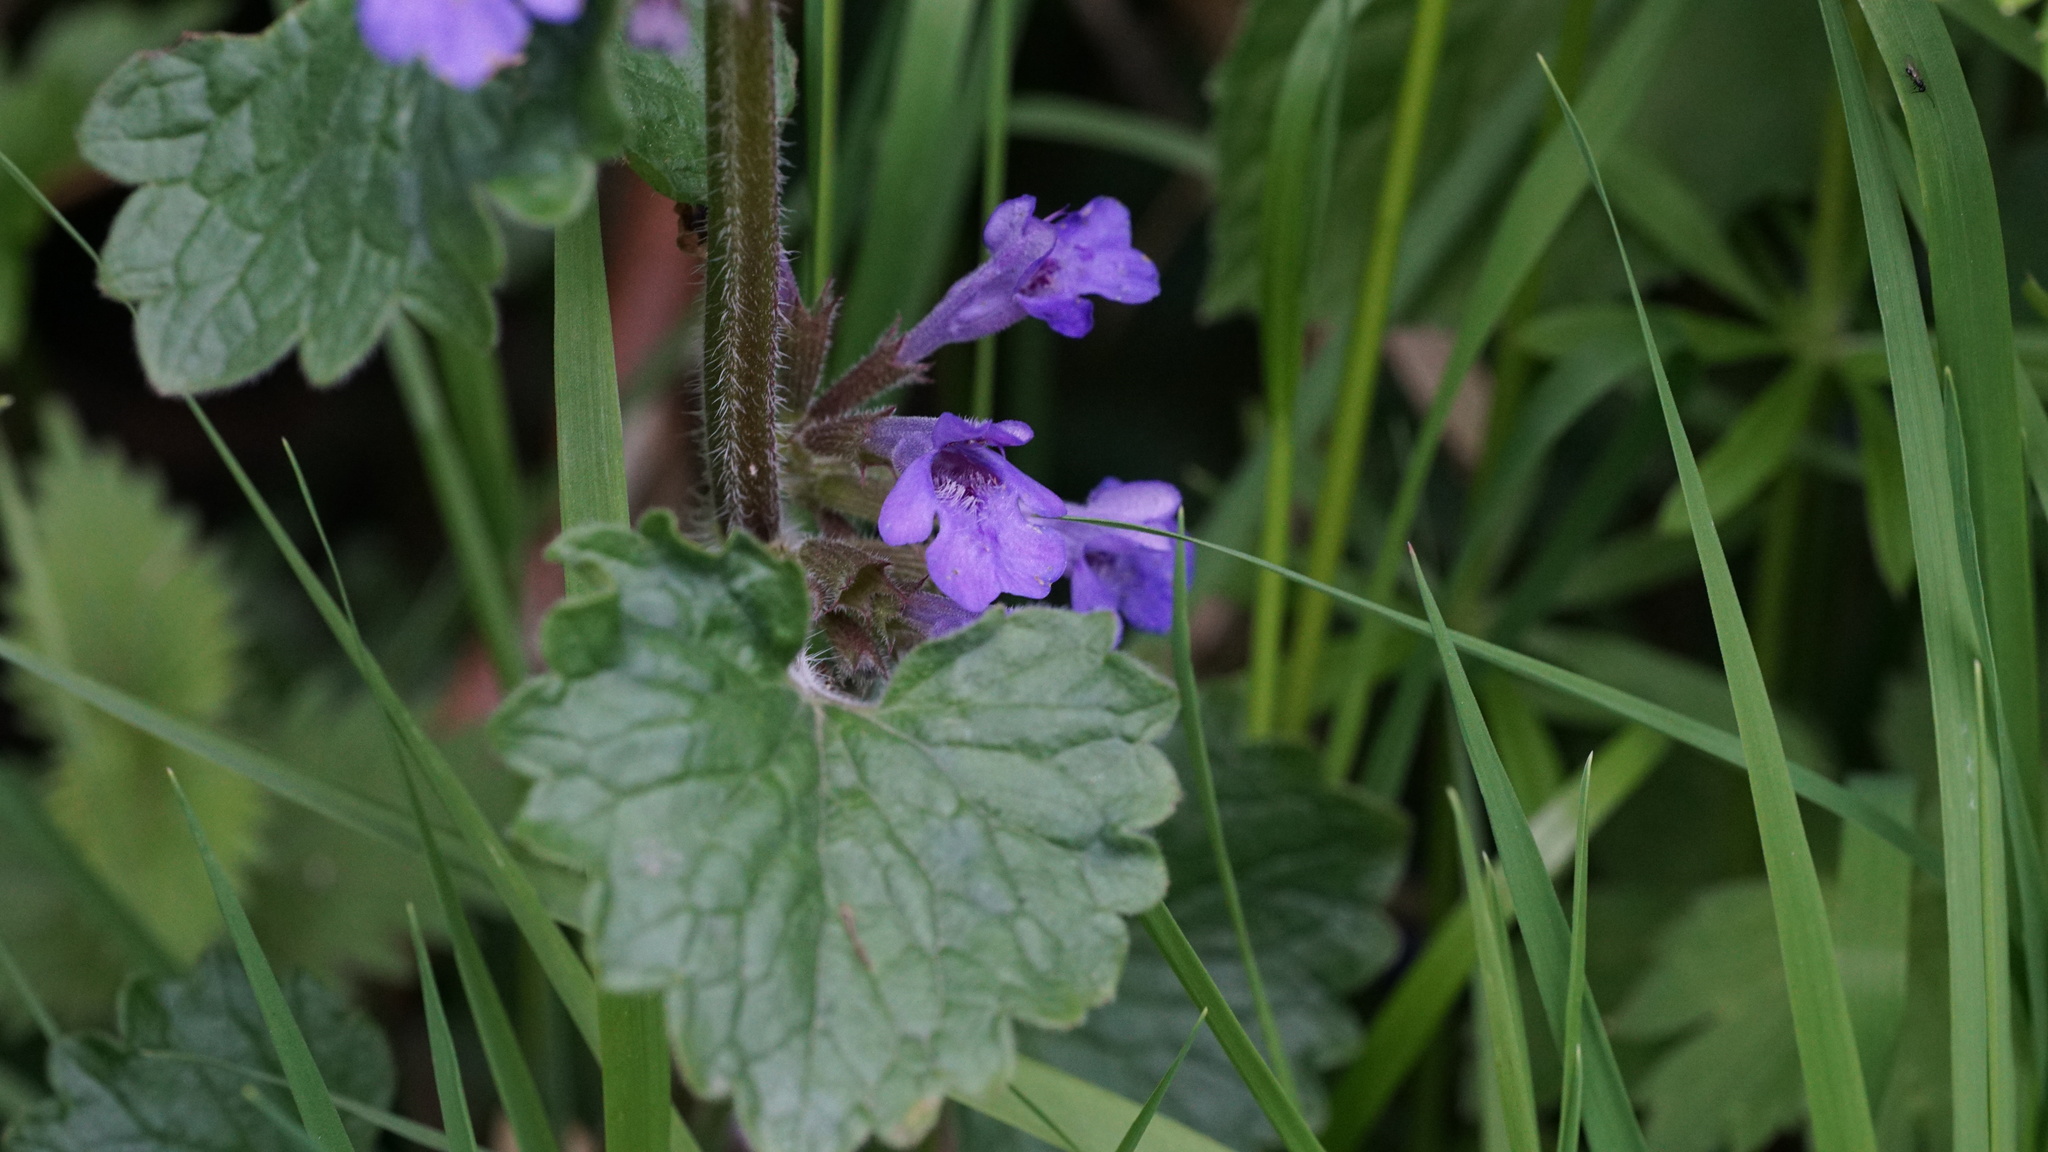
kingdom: Plantae
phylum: Tracheophyta
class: Magnoliopsida
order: Lamiales
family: Lamiaceae
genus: Glechoma
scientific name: Glechoma hederacea
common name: Ground ivy
